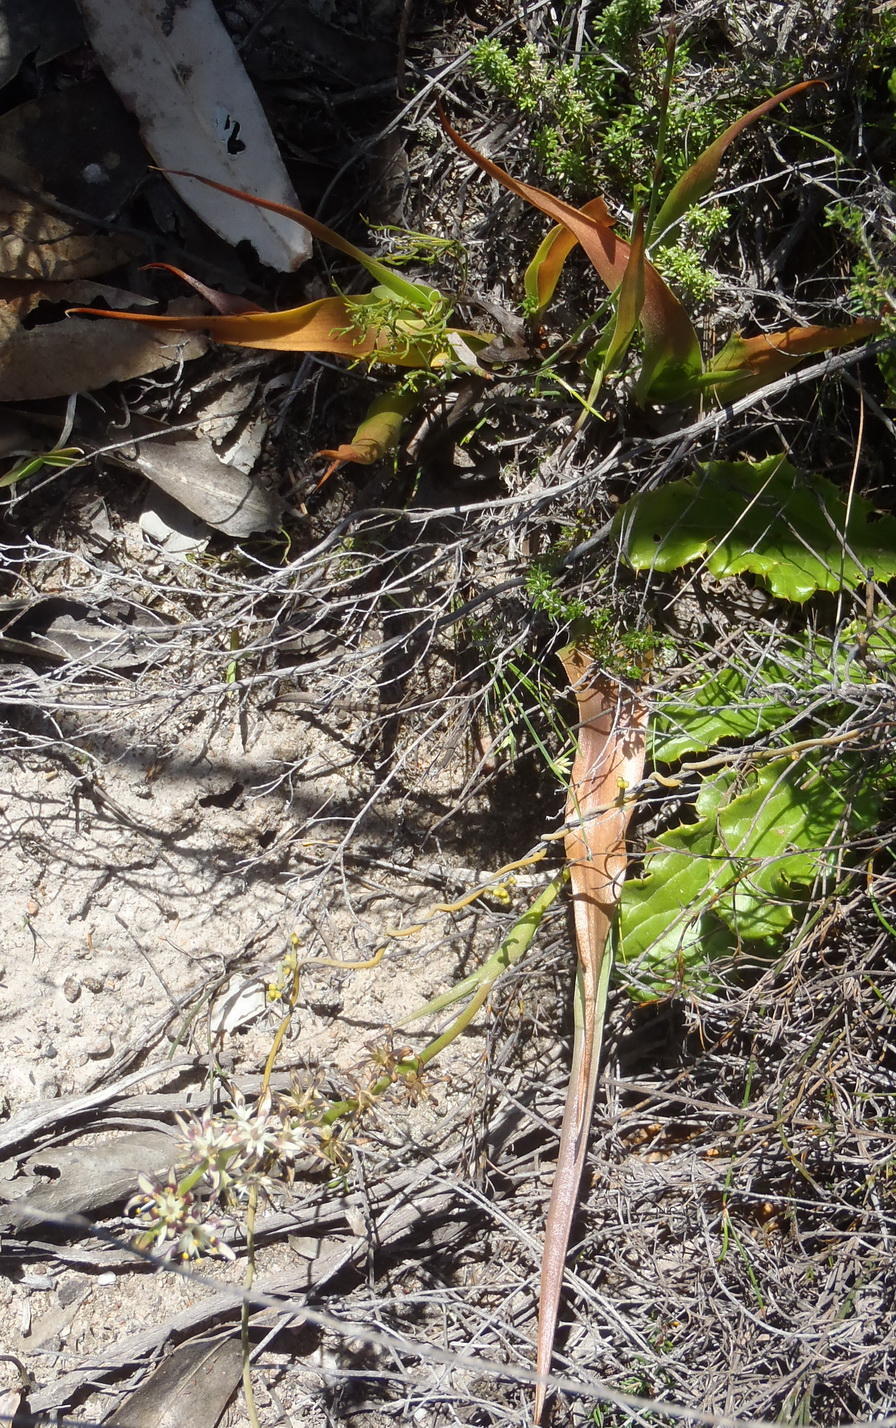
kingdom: Plantae
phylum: Tracheophyta
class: Liliopsida
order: Liliales
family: Colchicaceae
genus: Wurmbea
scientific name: Wurmbea variabilis
